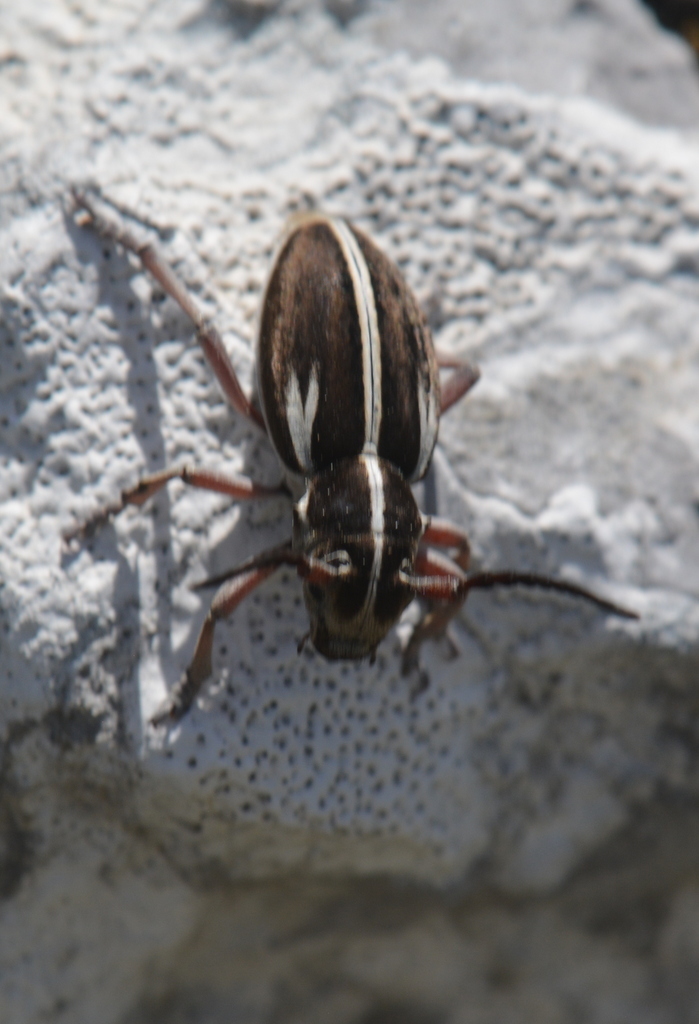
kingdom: Animalia
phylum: Arthropoda
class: Insecta
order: Coleoptera
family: Cerambycidae
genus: Dorcadion
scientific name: Dorcadion arenarium
